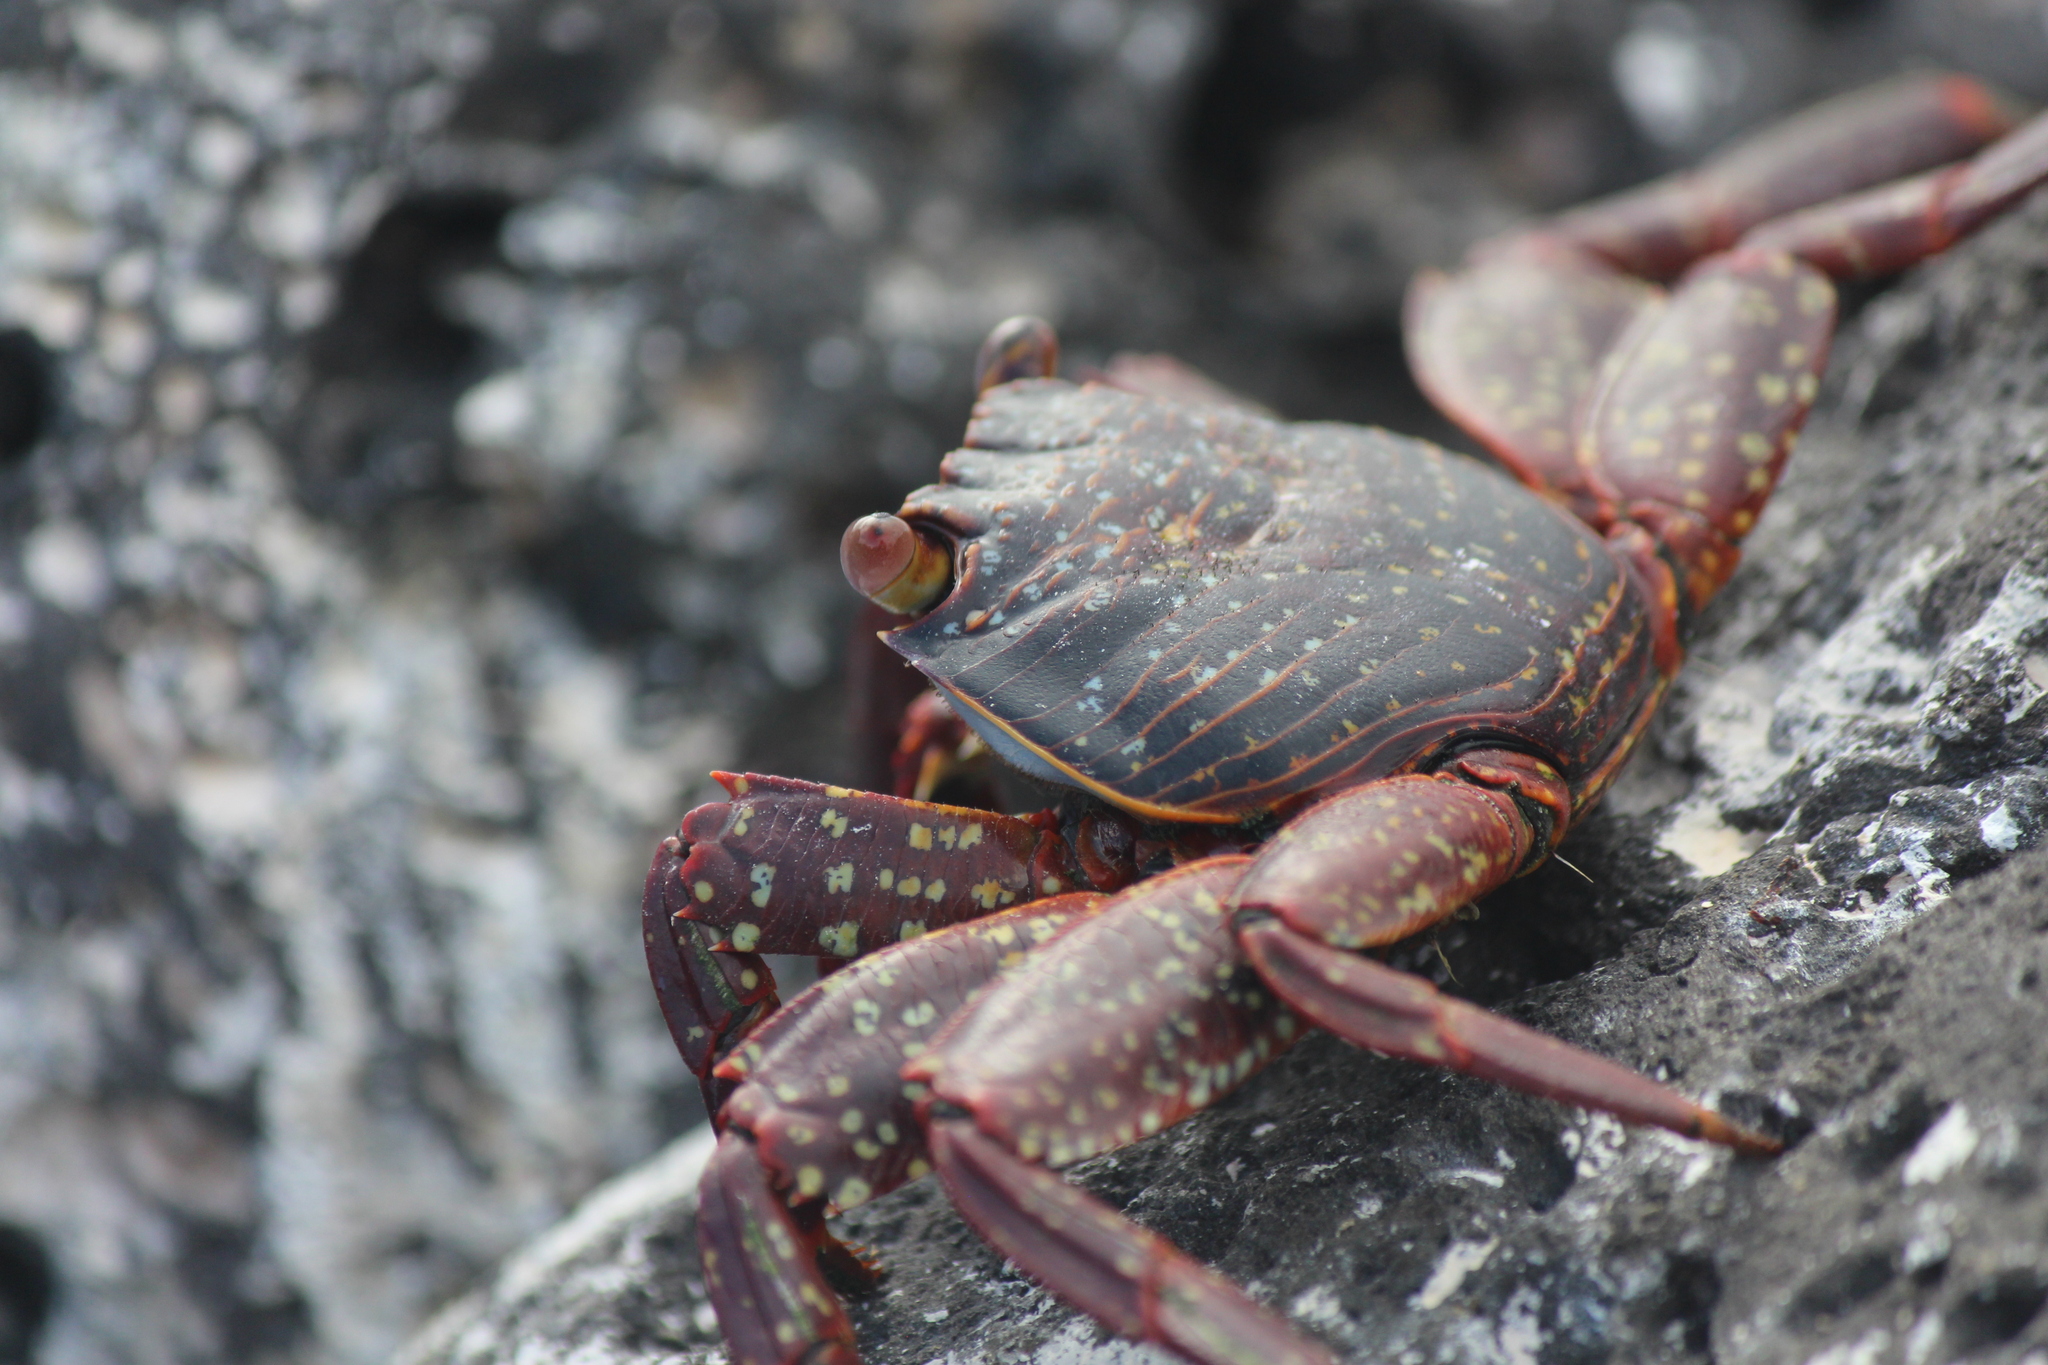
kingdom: Animalia
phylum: Arthropoda
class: Malacostraca
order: Decapoda
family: Grapsidae
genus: Grapsus
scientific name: Grapsus grapsus
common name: Sally lightfoot
